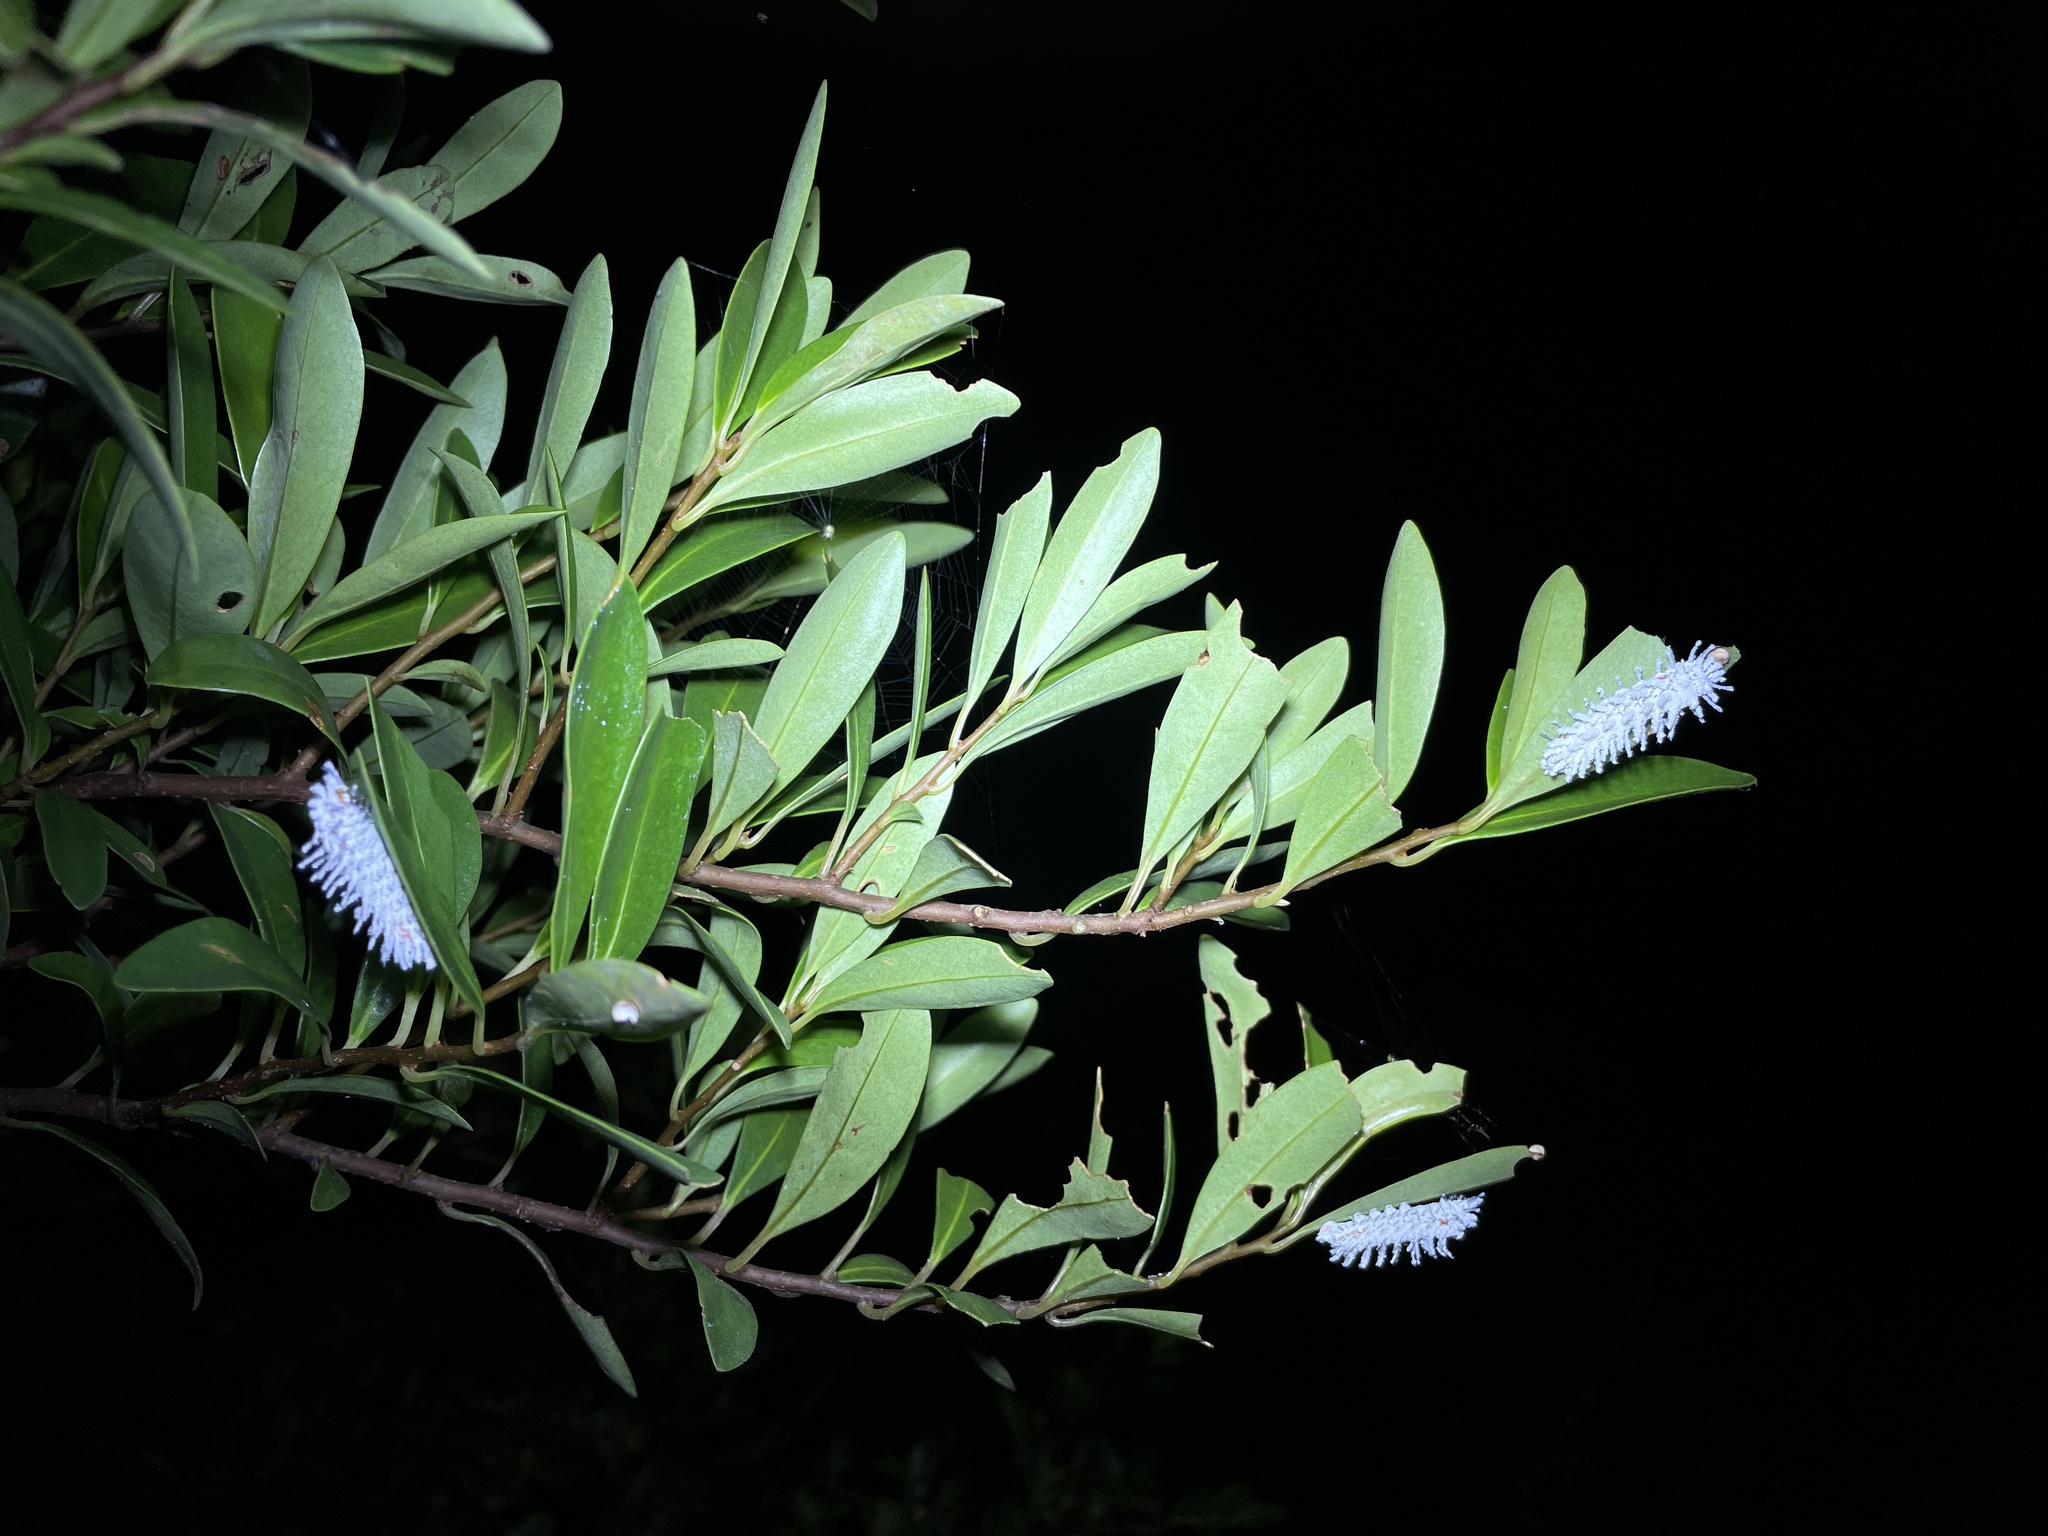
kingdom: Animalia
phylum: Arthropoda
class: Insecta
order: Lepidoptera
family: Saturniidae
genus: Attacus
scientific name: Attacus atlas
